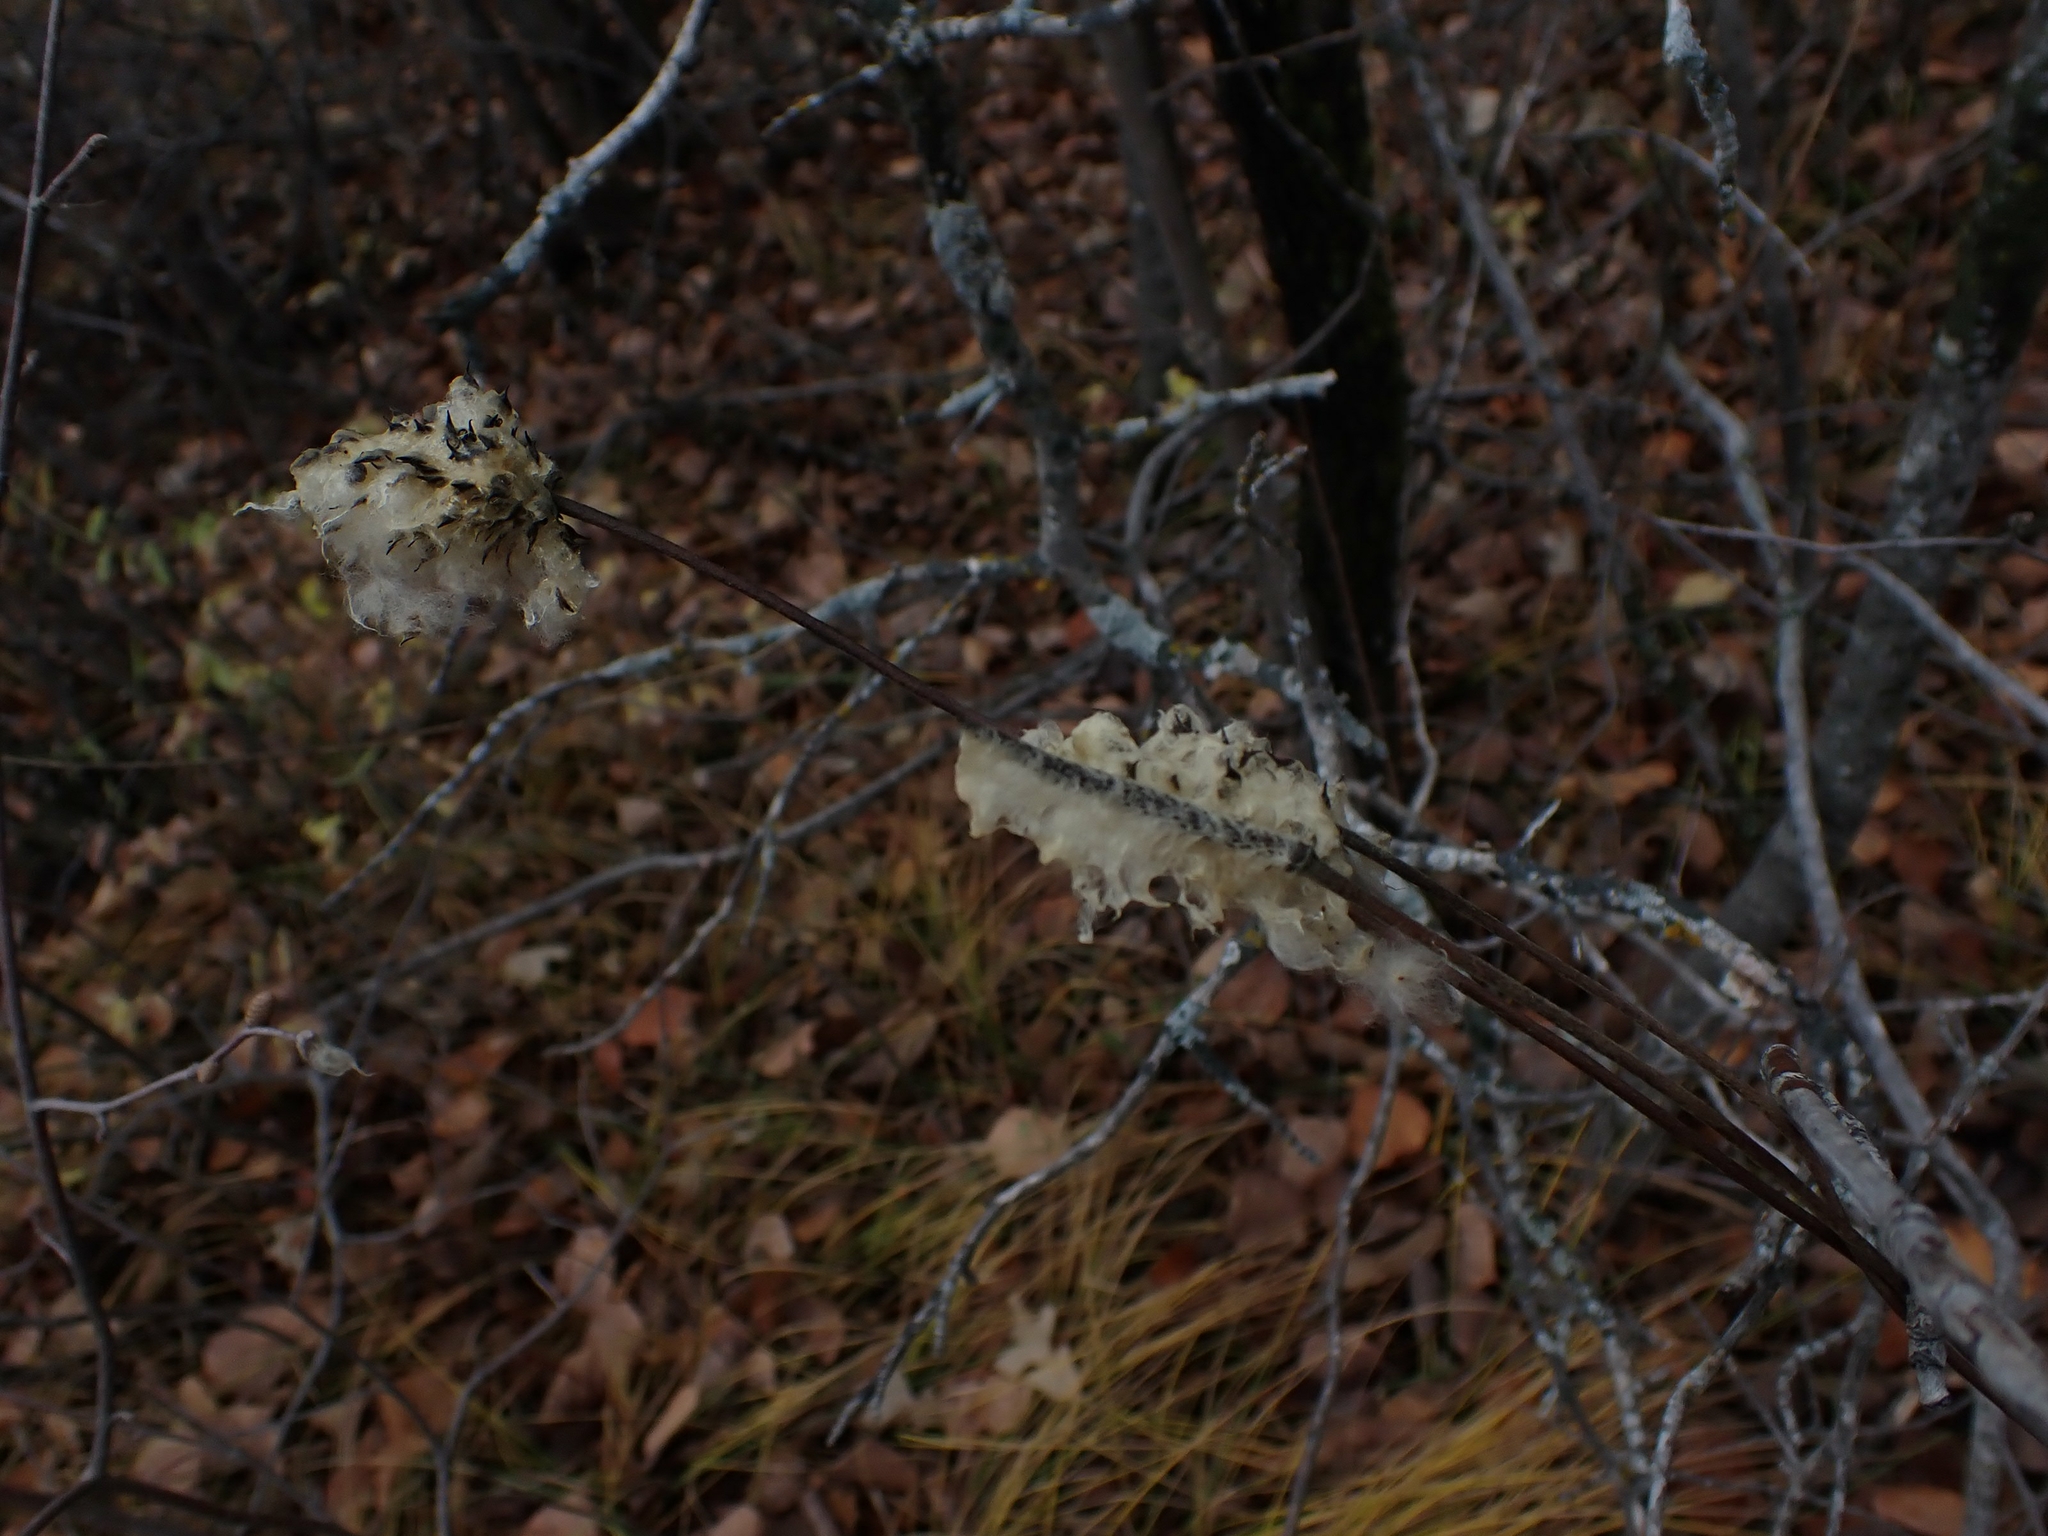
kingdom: Plantae
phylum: Tracheophyta
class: Magnoliopsida
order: Ranunculales
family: Ranunculaceae
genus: Anemone
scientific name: Anemone virginiana
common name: Tall anemone
